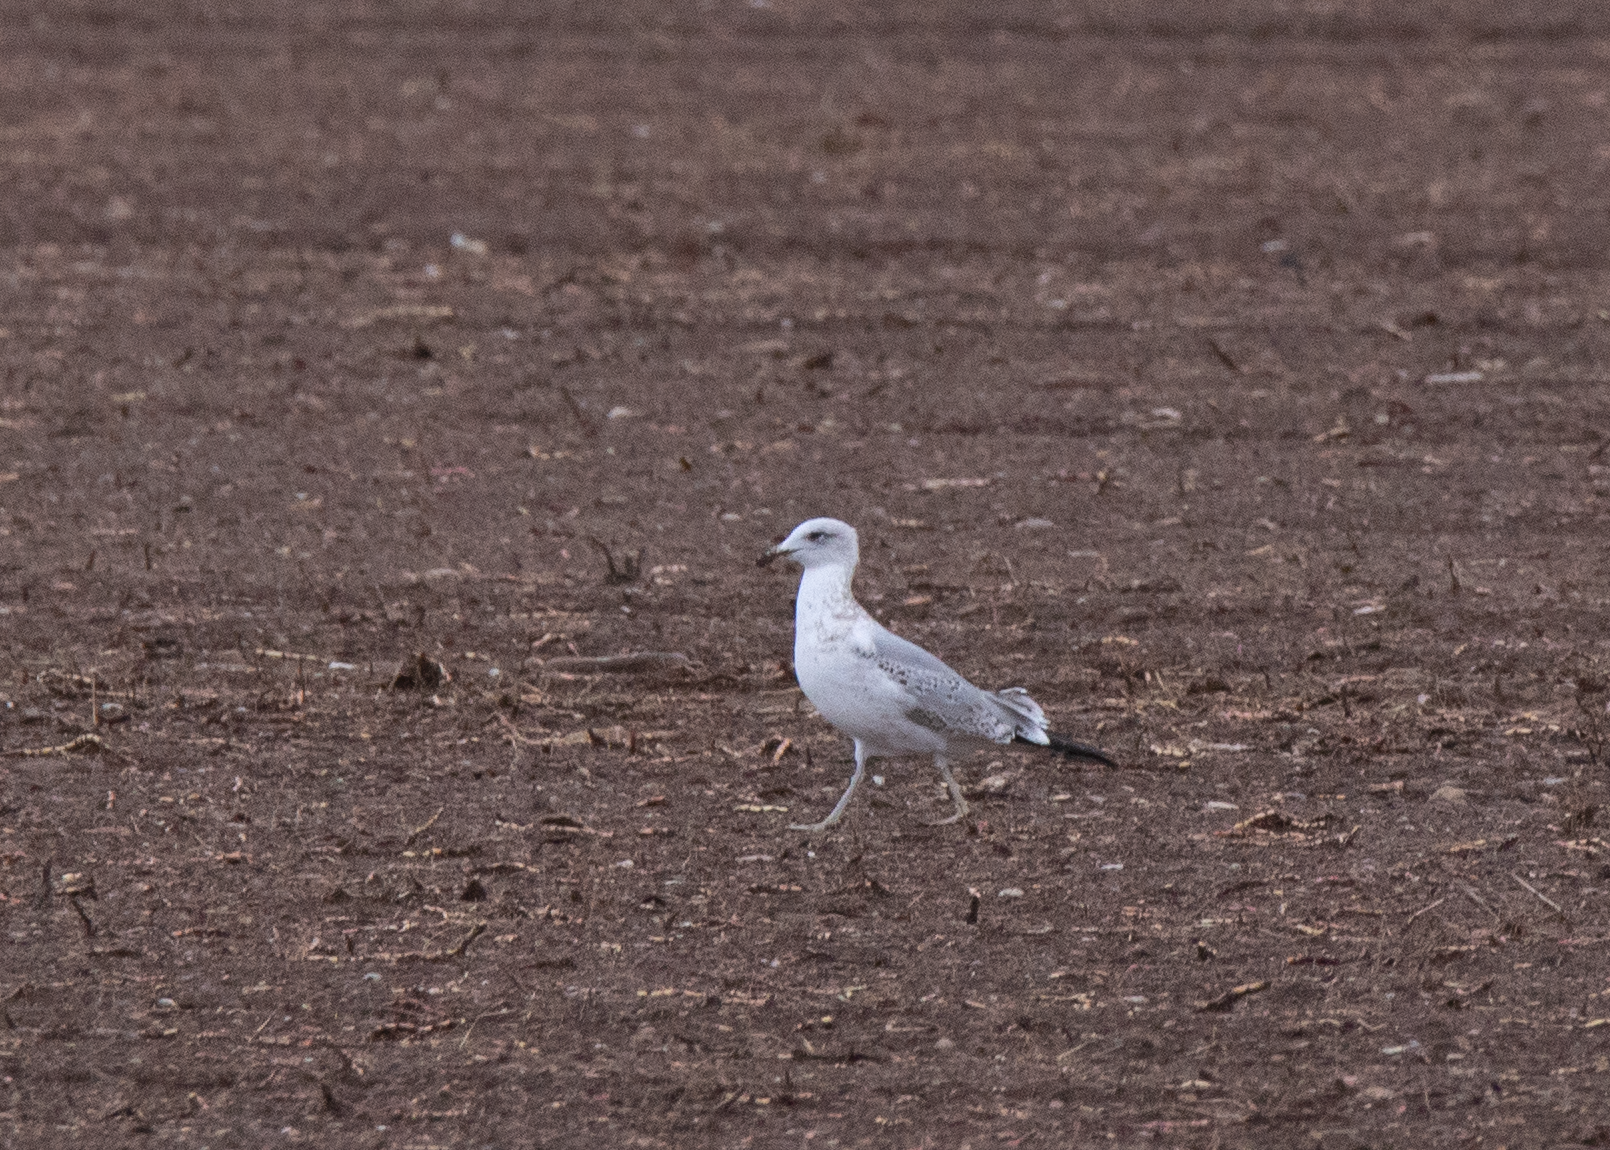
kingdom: Animalia
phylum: Chordata
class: Aves
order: Charadriiformes
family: Laridae
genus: Larus
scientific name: Larus michahellis
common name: Yellow-legged gull
